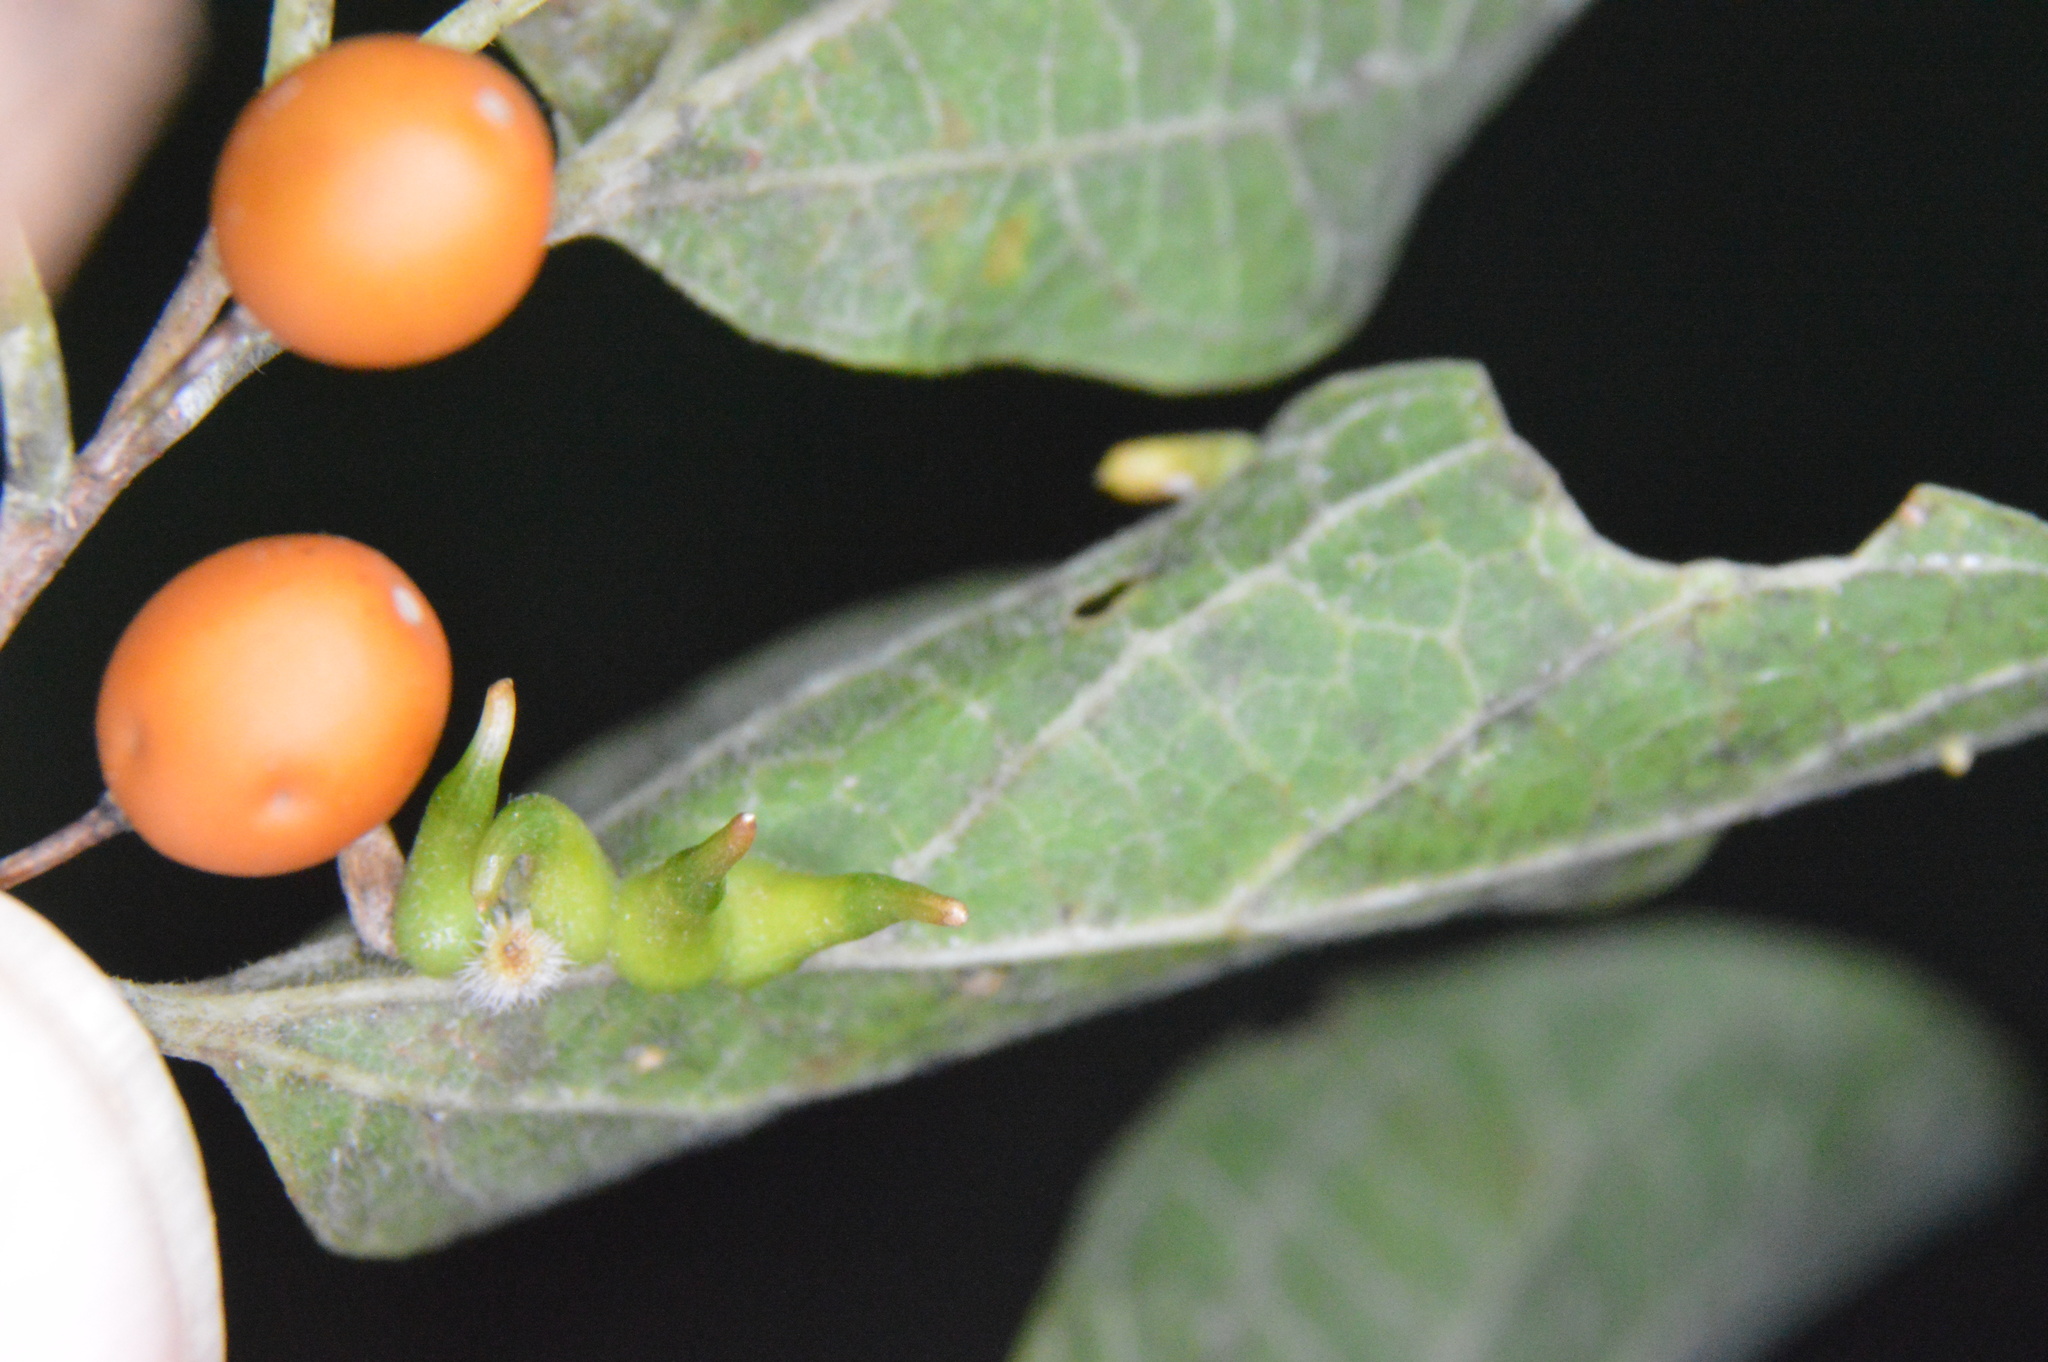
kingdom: Animalia
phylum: Arthropoda
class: Insecta
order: Diptera
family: Cecidomyiidae
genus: Celticecis
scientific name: Celticecis subulata
